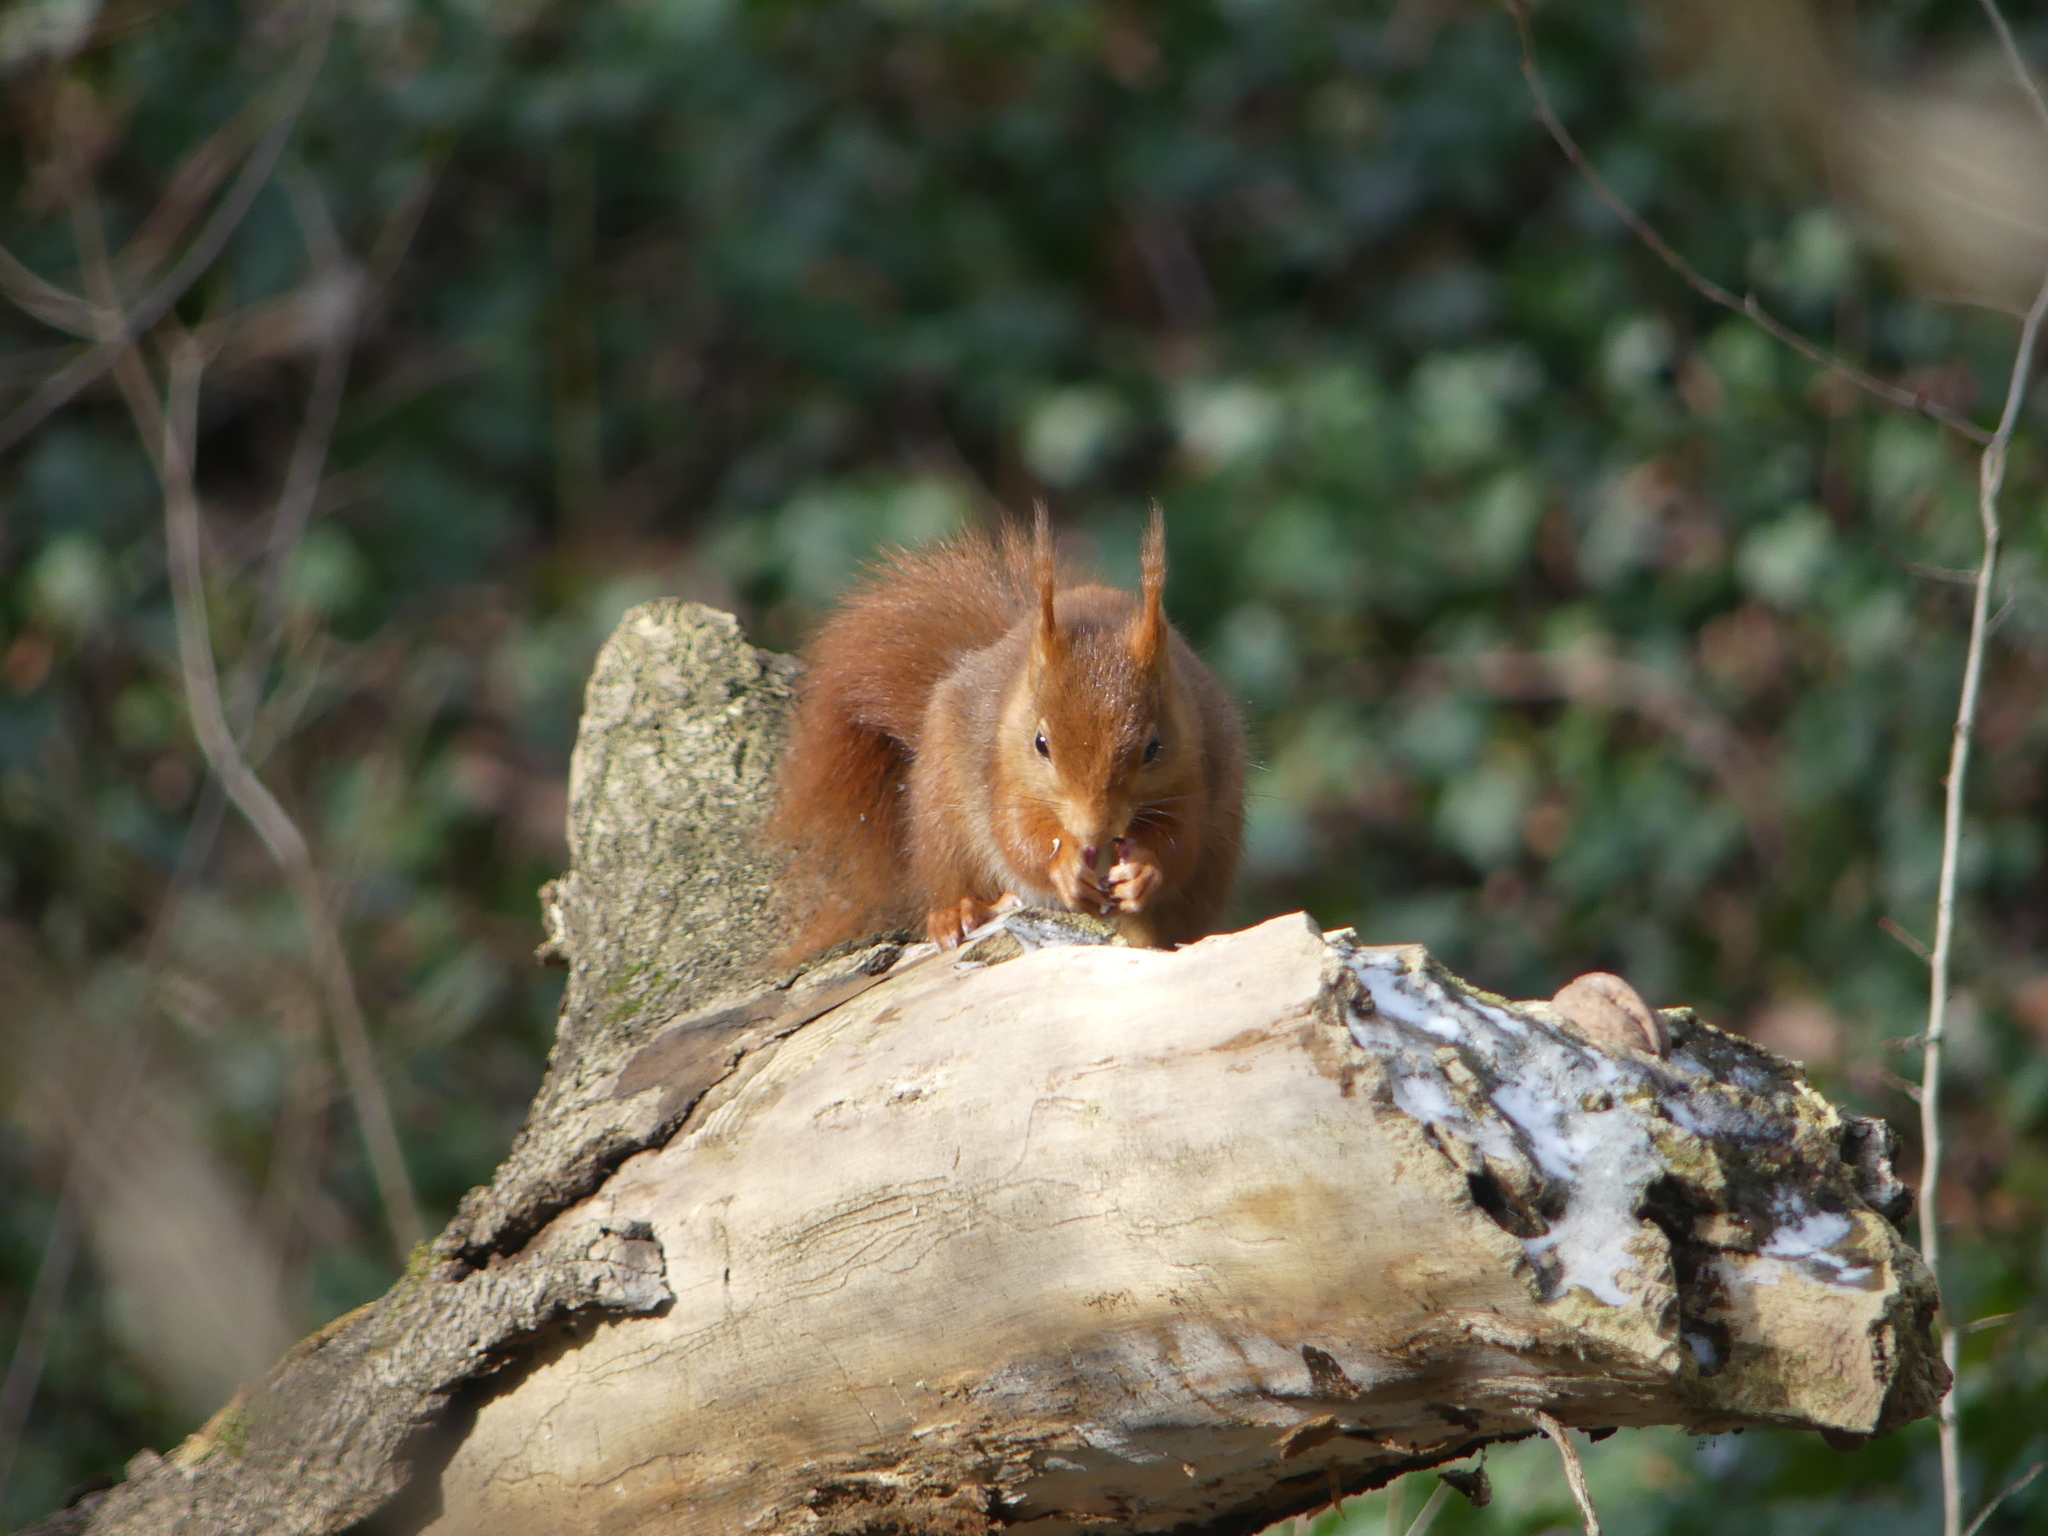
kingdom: Animalia
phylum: Chordata
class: Mammalia
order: Rodentia
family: Sciuridae
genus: Sciurus
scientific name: Sciurus vulgaris
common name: Eurasian red squirrel
